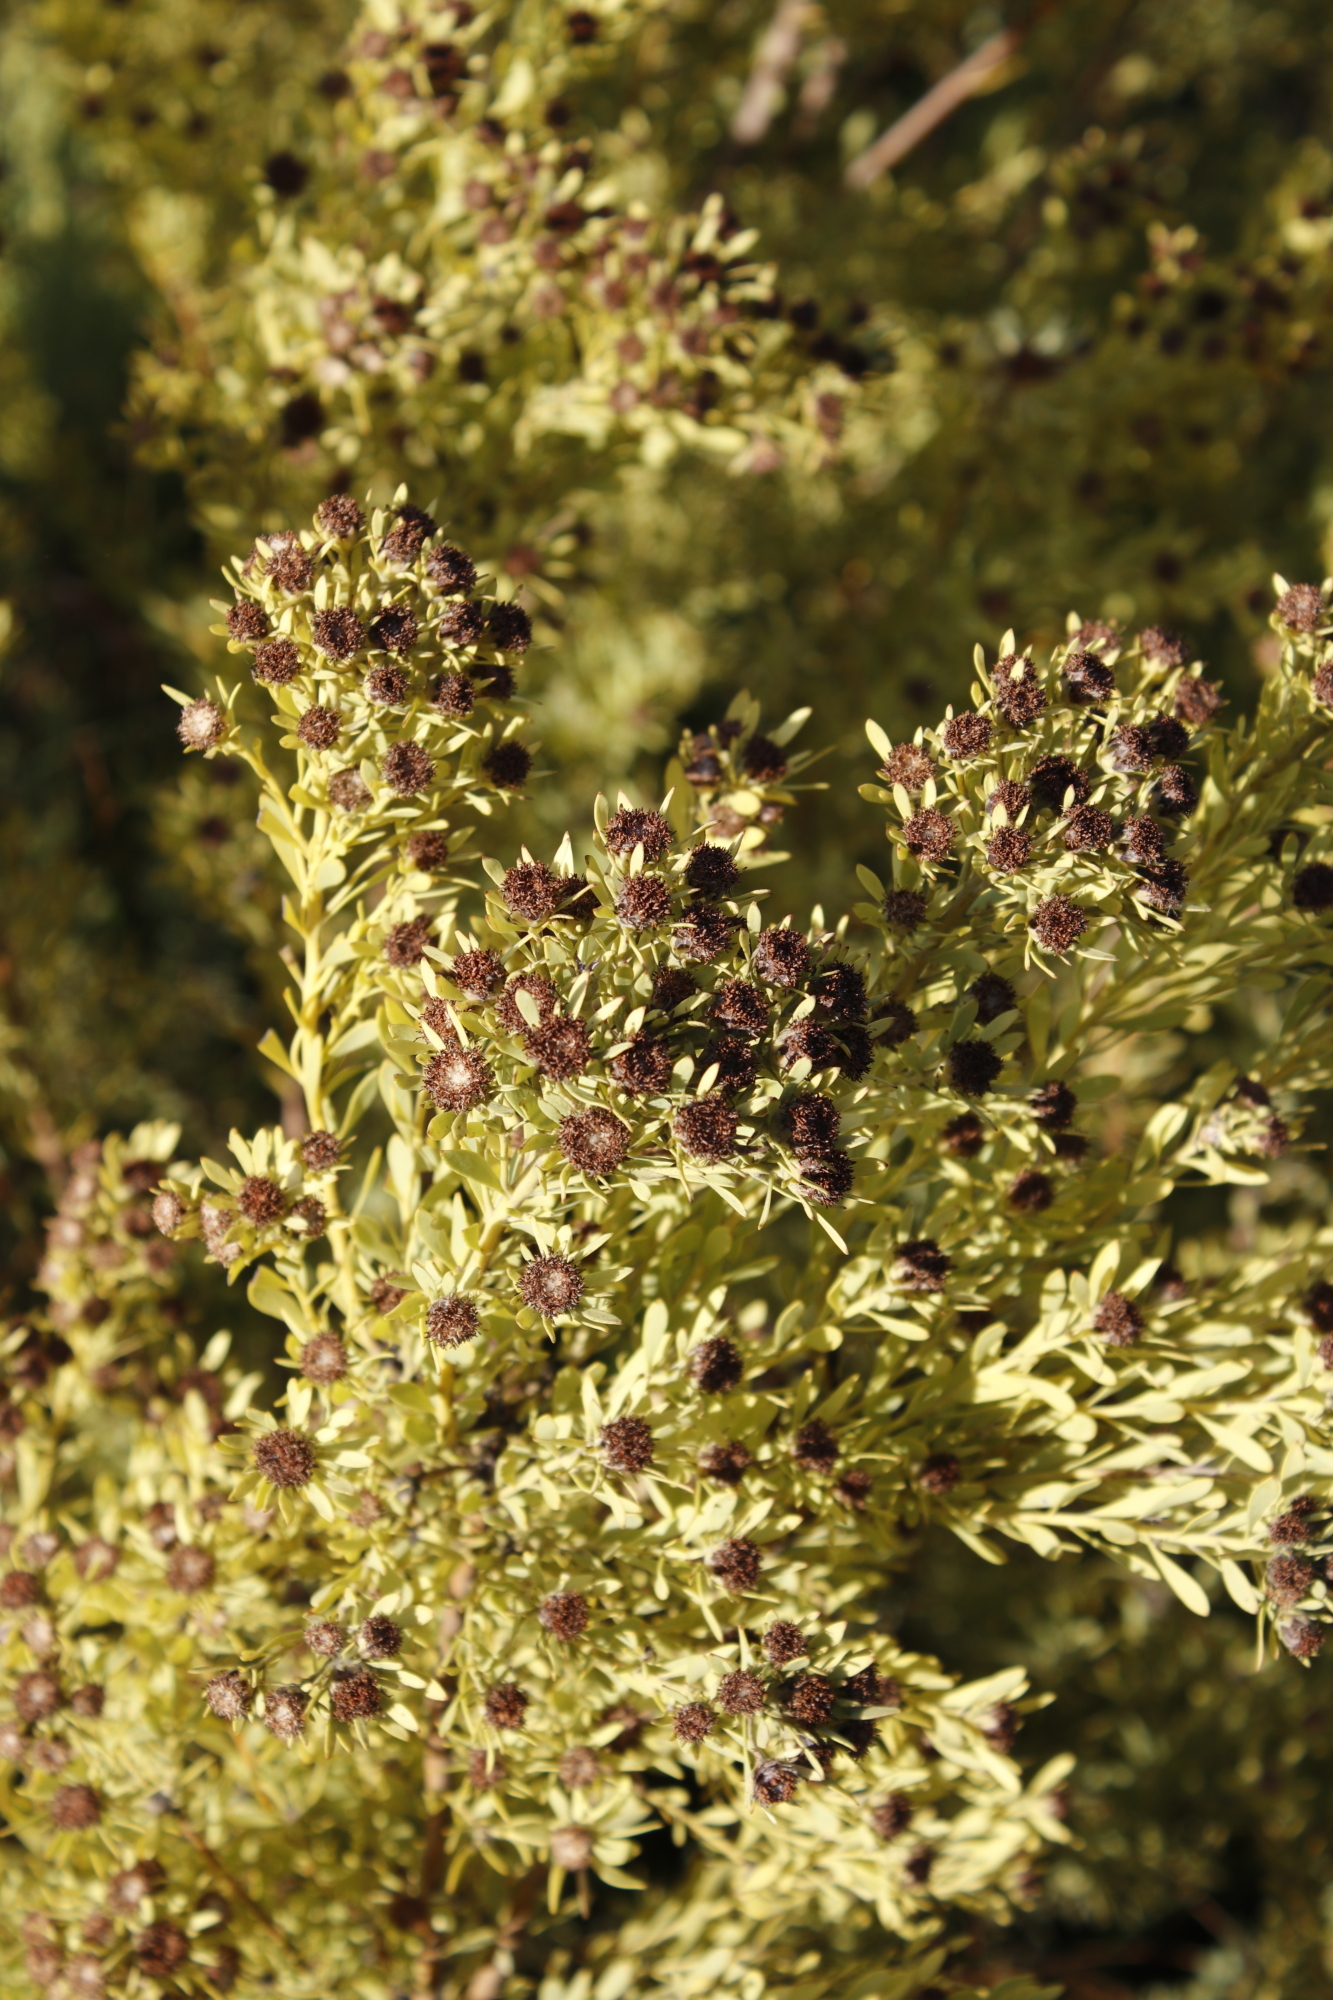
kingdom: Plantae
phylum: Tracheophyta
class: Magnoliopsida
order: Proteales
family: Proteaceae
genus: Leucadendron
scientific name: Leucadendron pubescens
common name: Grey conebush
